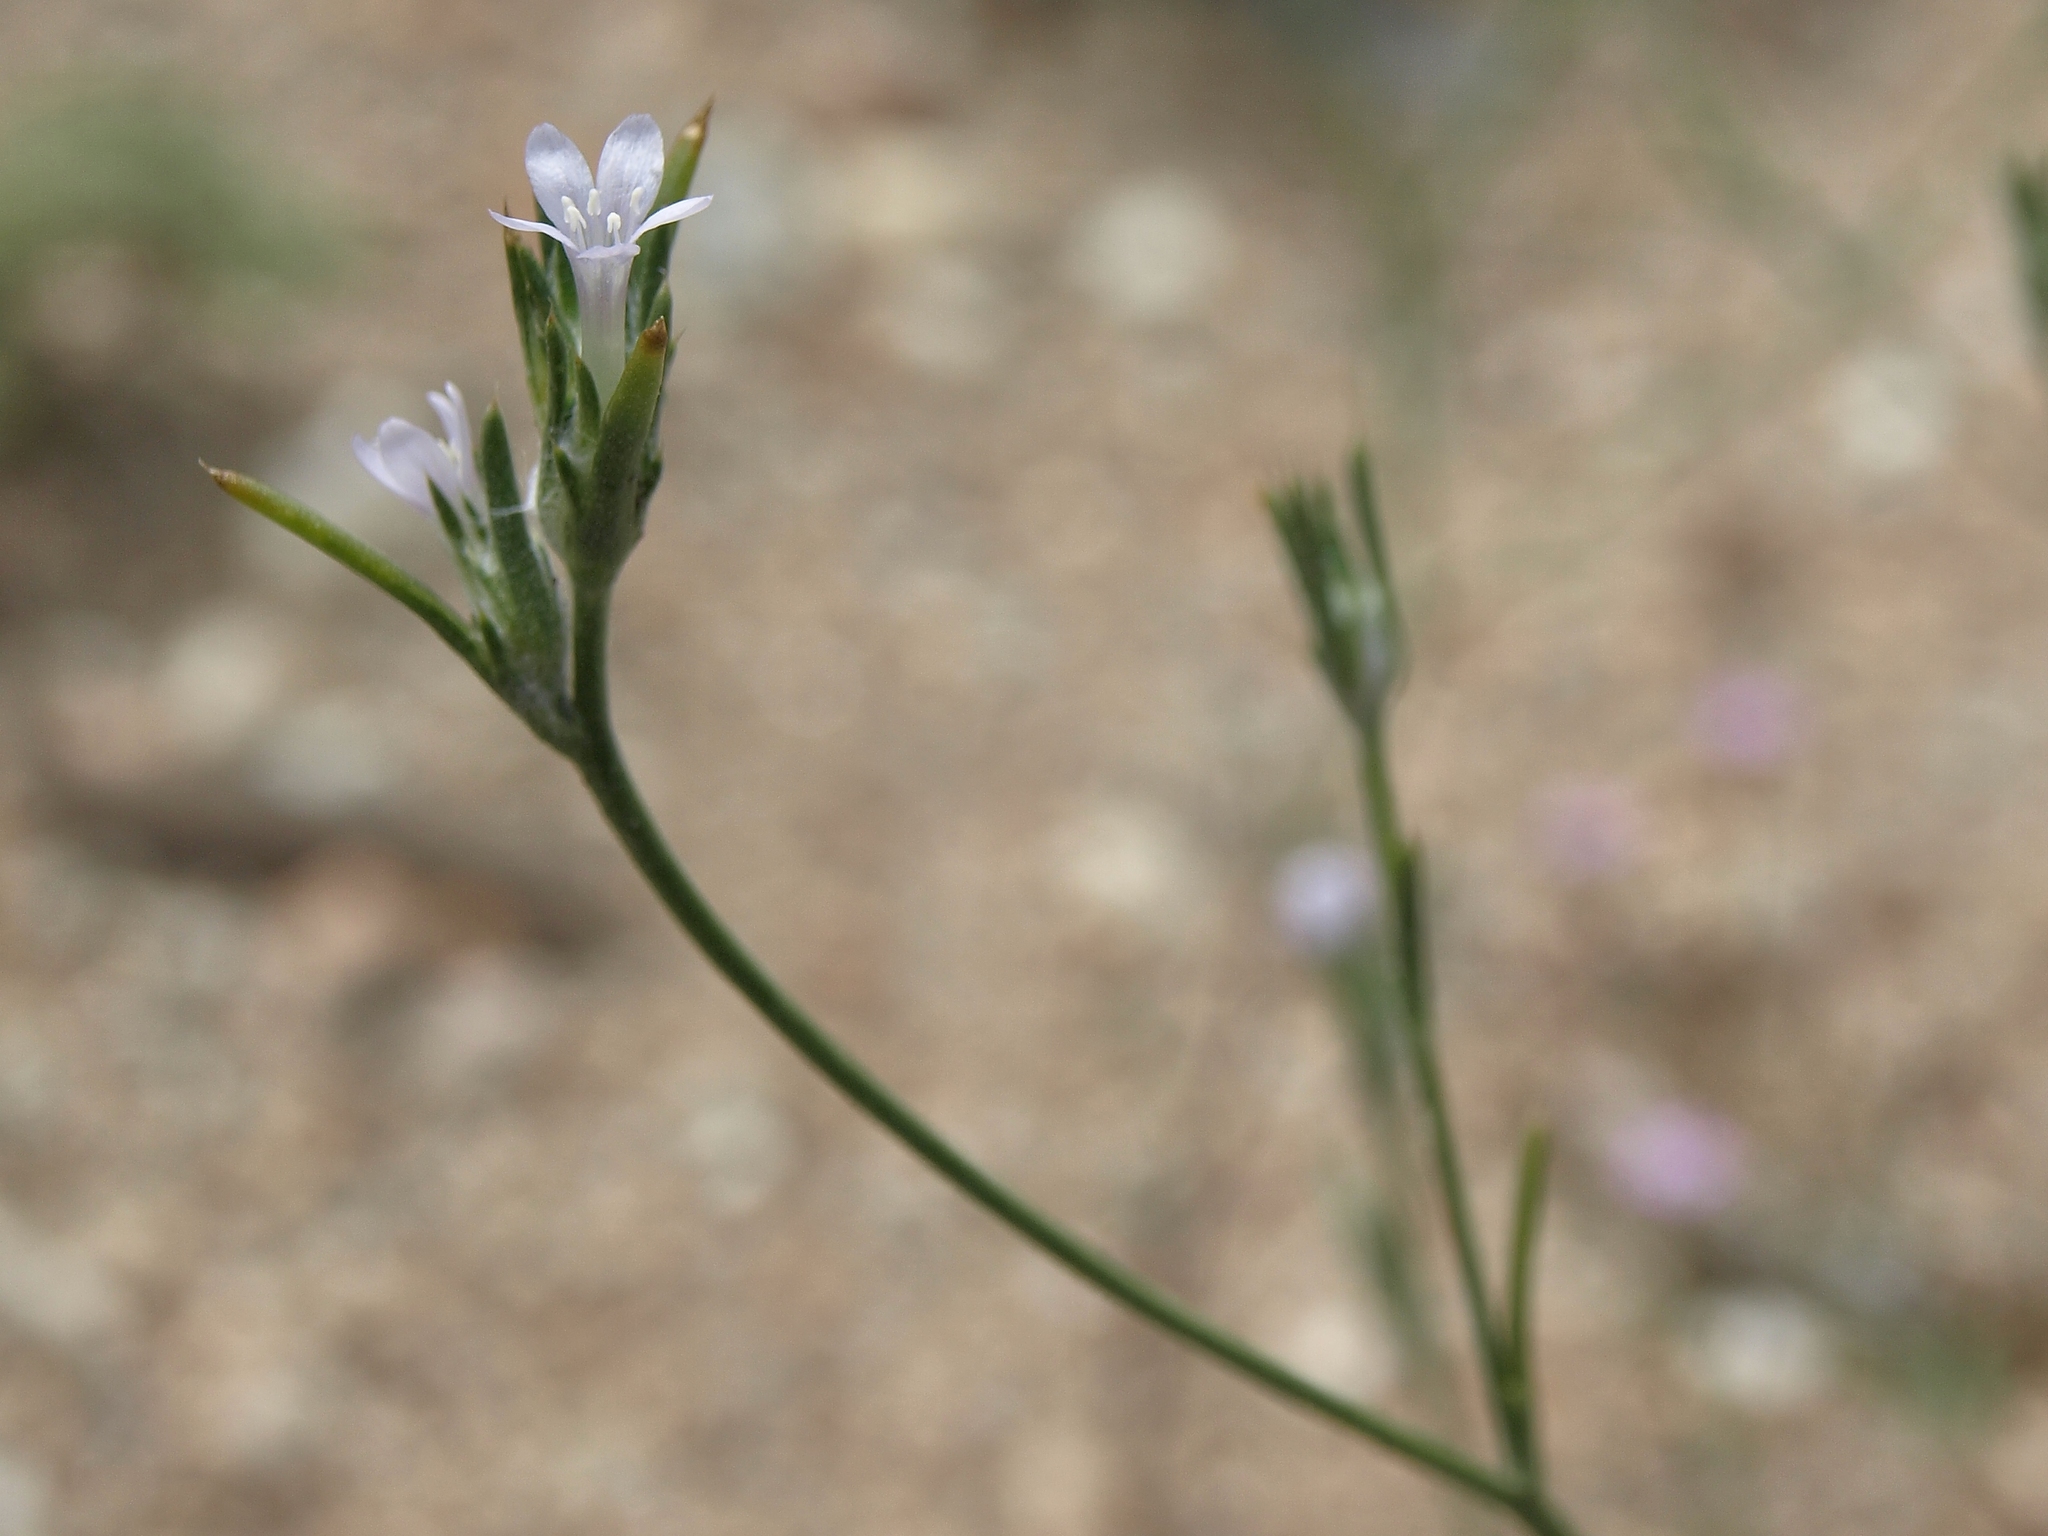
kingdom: Plantae
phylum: Tracheophyta
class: Magnoliopsida
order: Ericales
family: Polemoniaceae
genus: Eriastrum
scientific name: Eriastrum sparsiflorum
